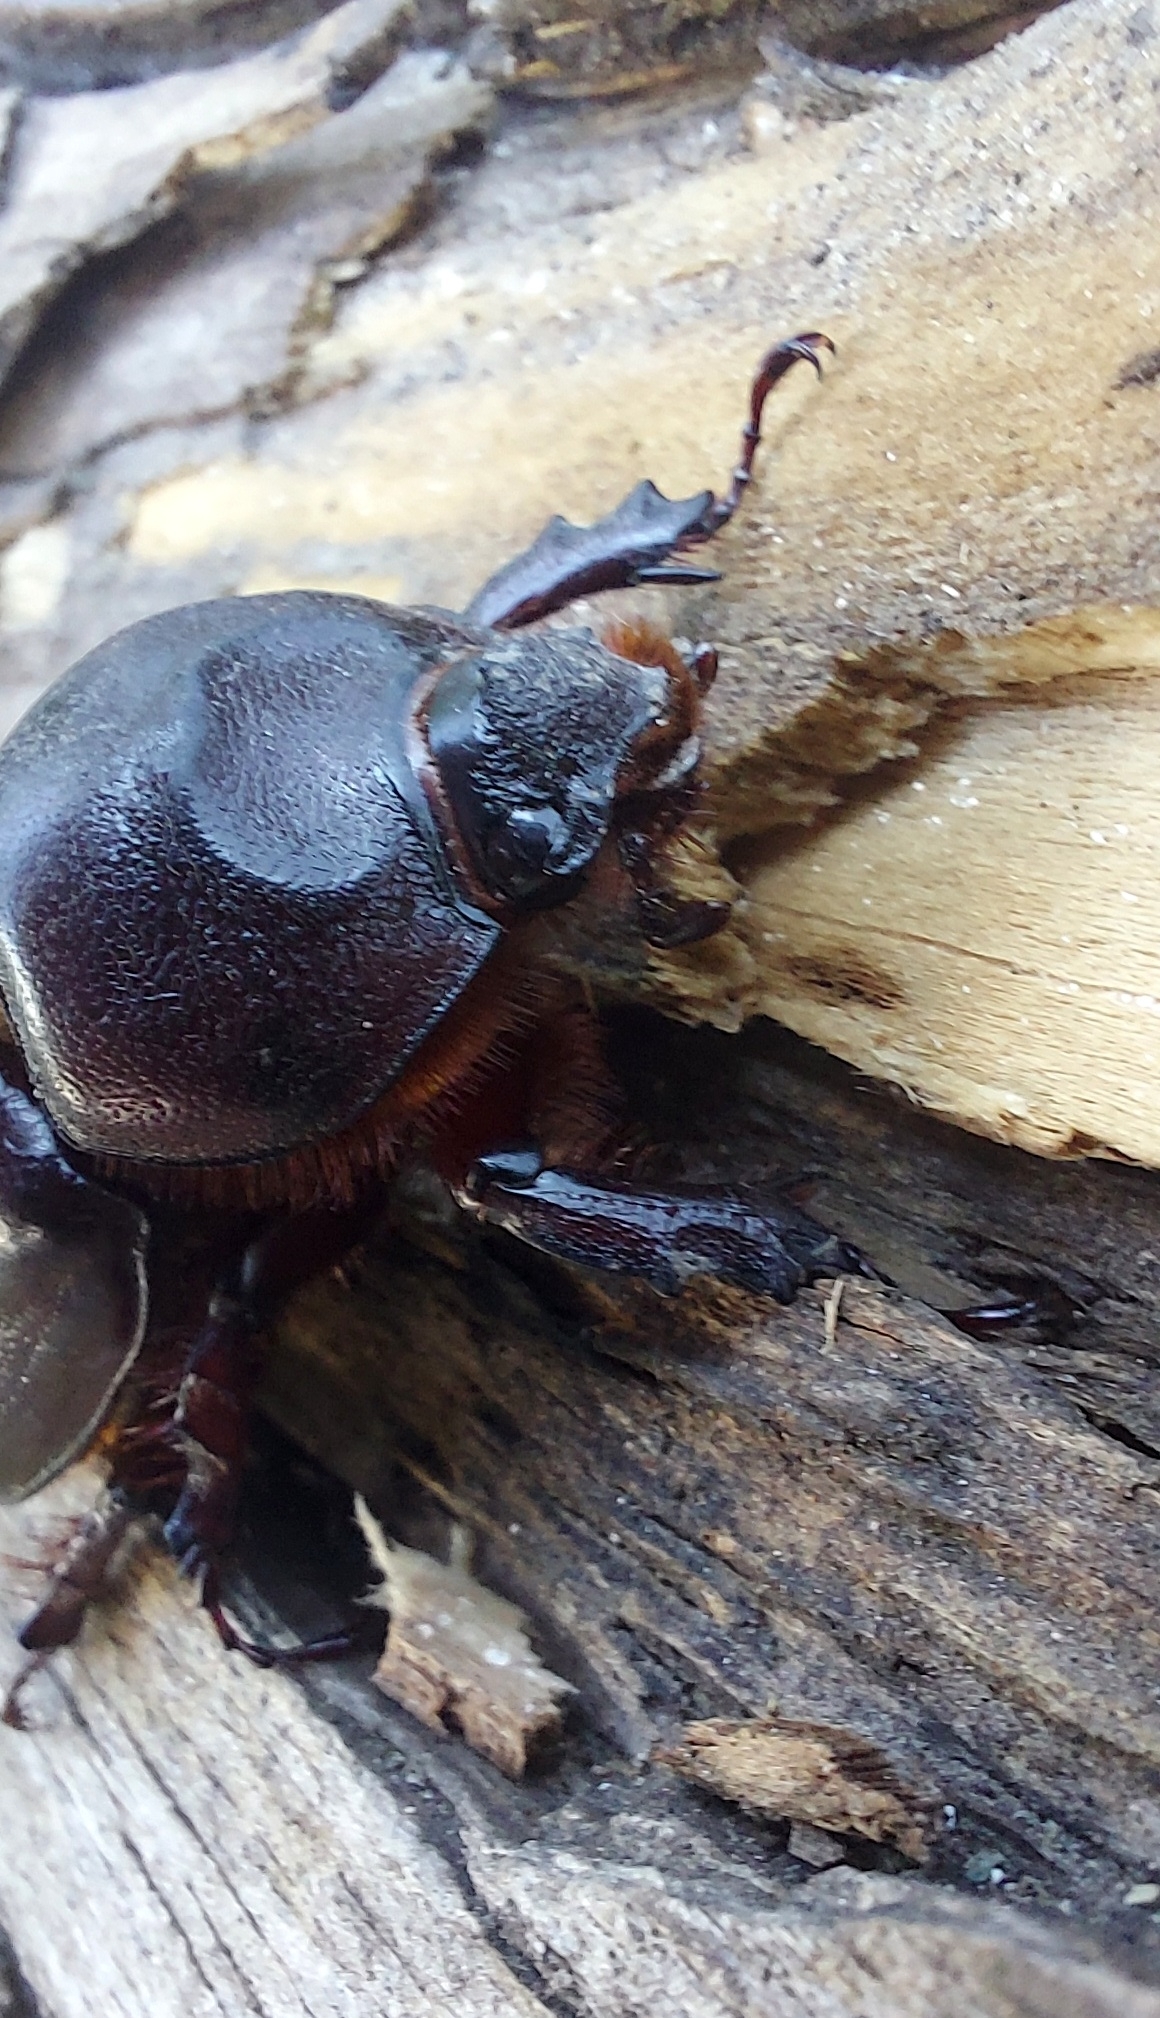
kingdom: Animalia
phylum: Arthropoda
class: Insecta
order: Coleoptera
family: Scarabaeidae
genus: Oryctes
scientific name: Oryctes nasicornis
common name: European rhinoceros beetle
